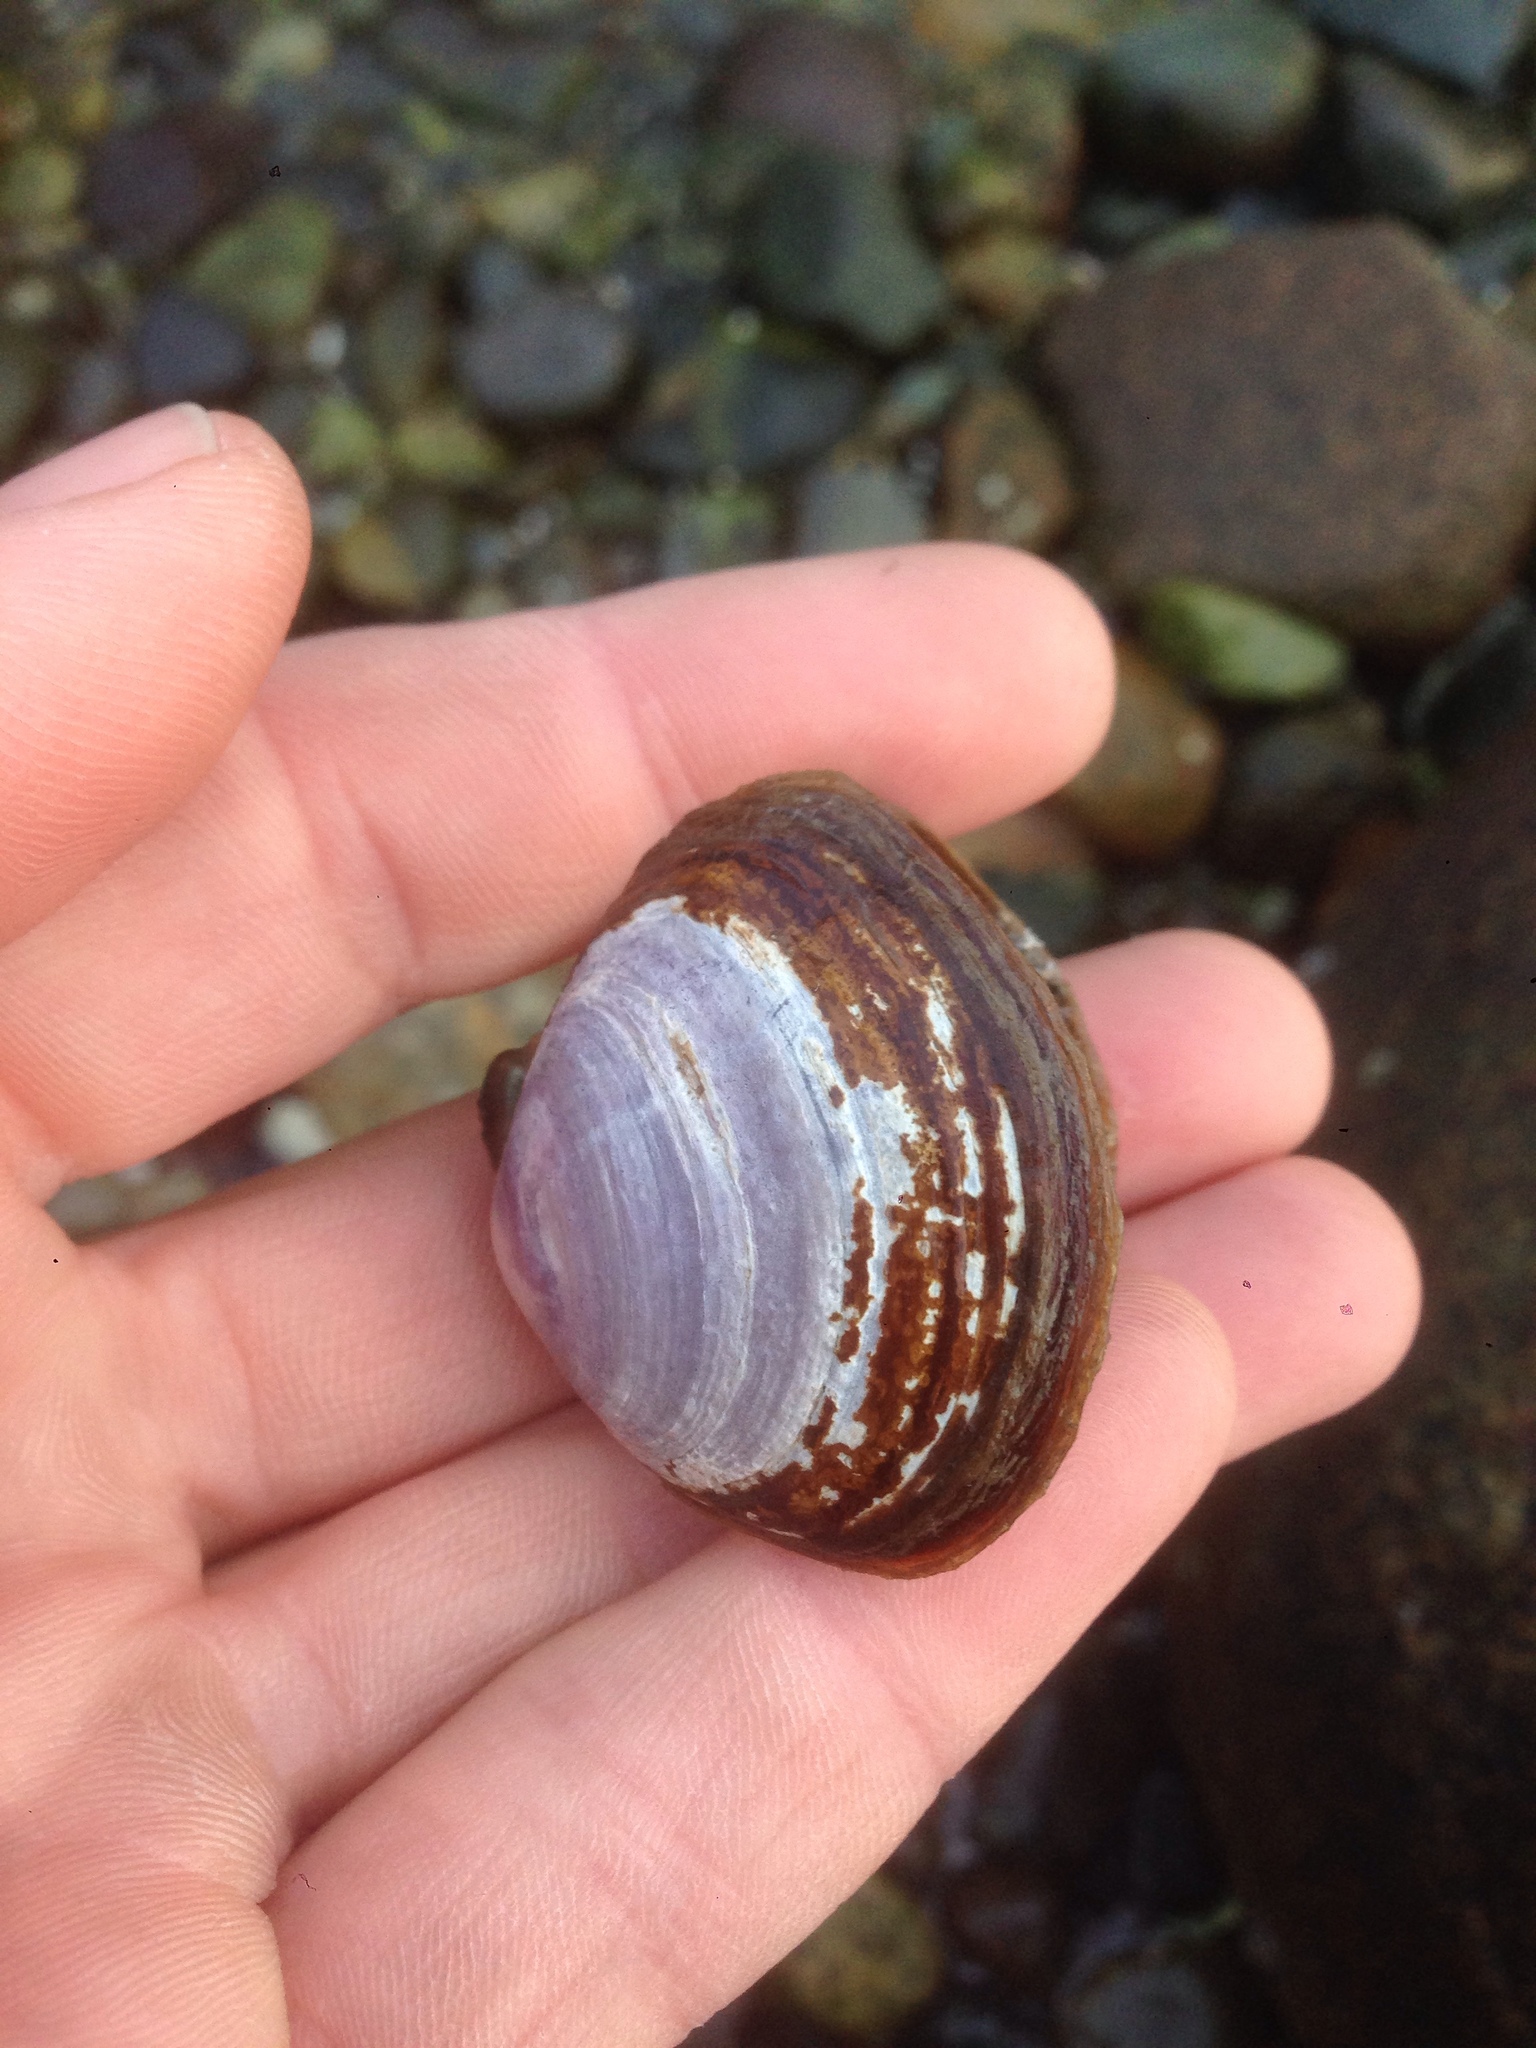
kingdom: Animalia
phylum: Mollusca
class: Bivalvia
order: Cardiida
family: Psammobiidae
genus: Nuttallia
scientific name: Nuttallia obscurata
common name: Purple mahogany-clam
